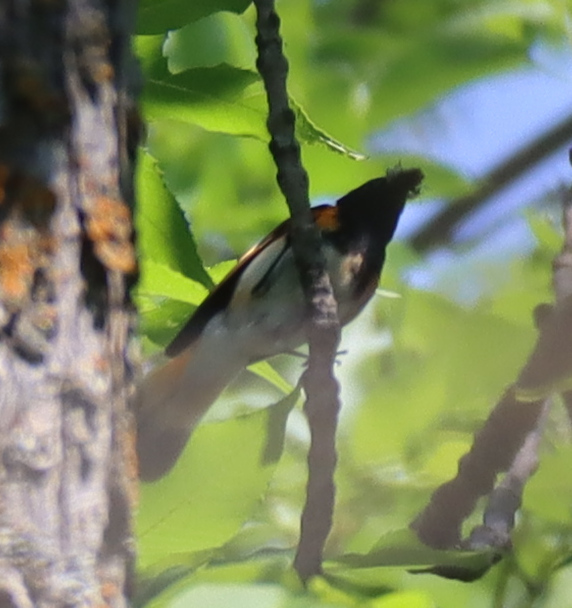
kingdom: Animalia
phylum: Chordata
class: Aves
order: Passeriformes
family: Parulidae
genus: Setophaga
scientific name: Setophaga ruticilla
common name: American redstart
